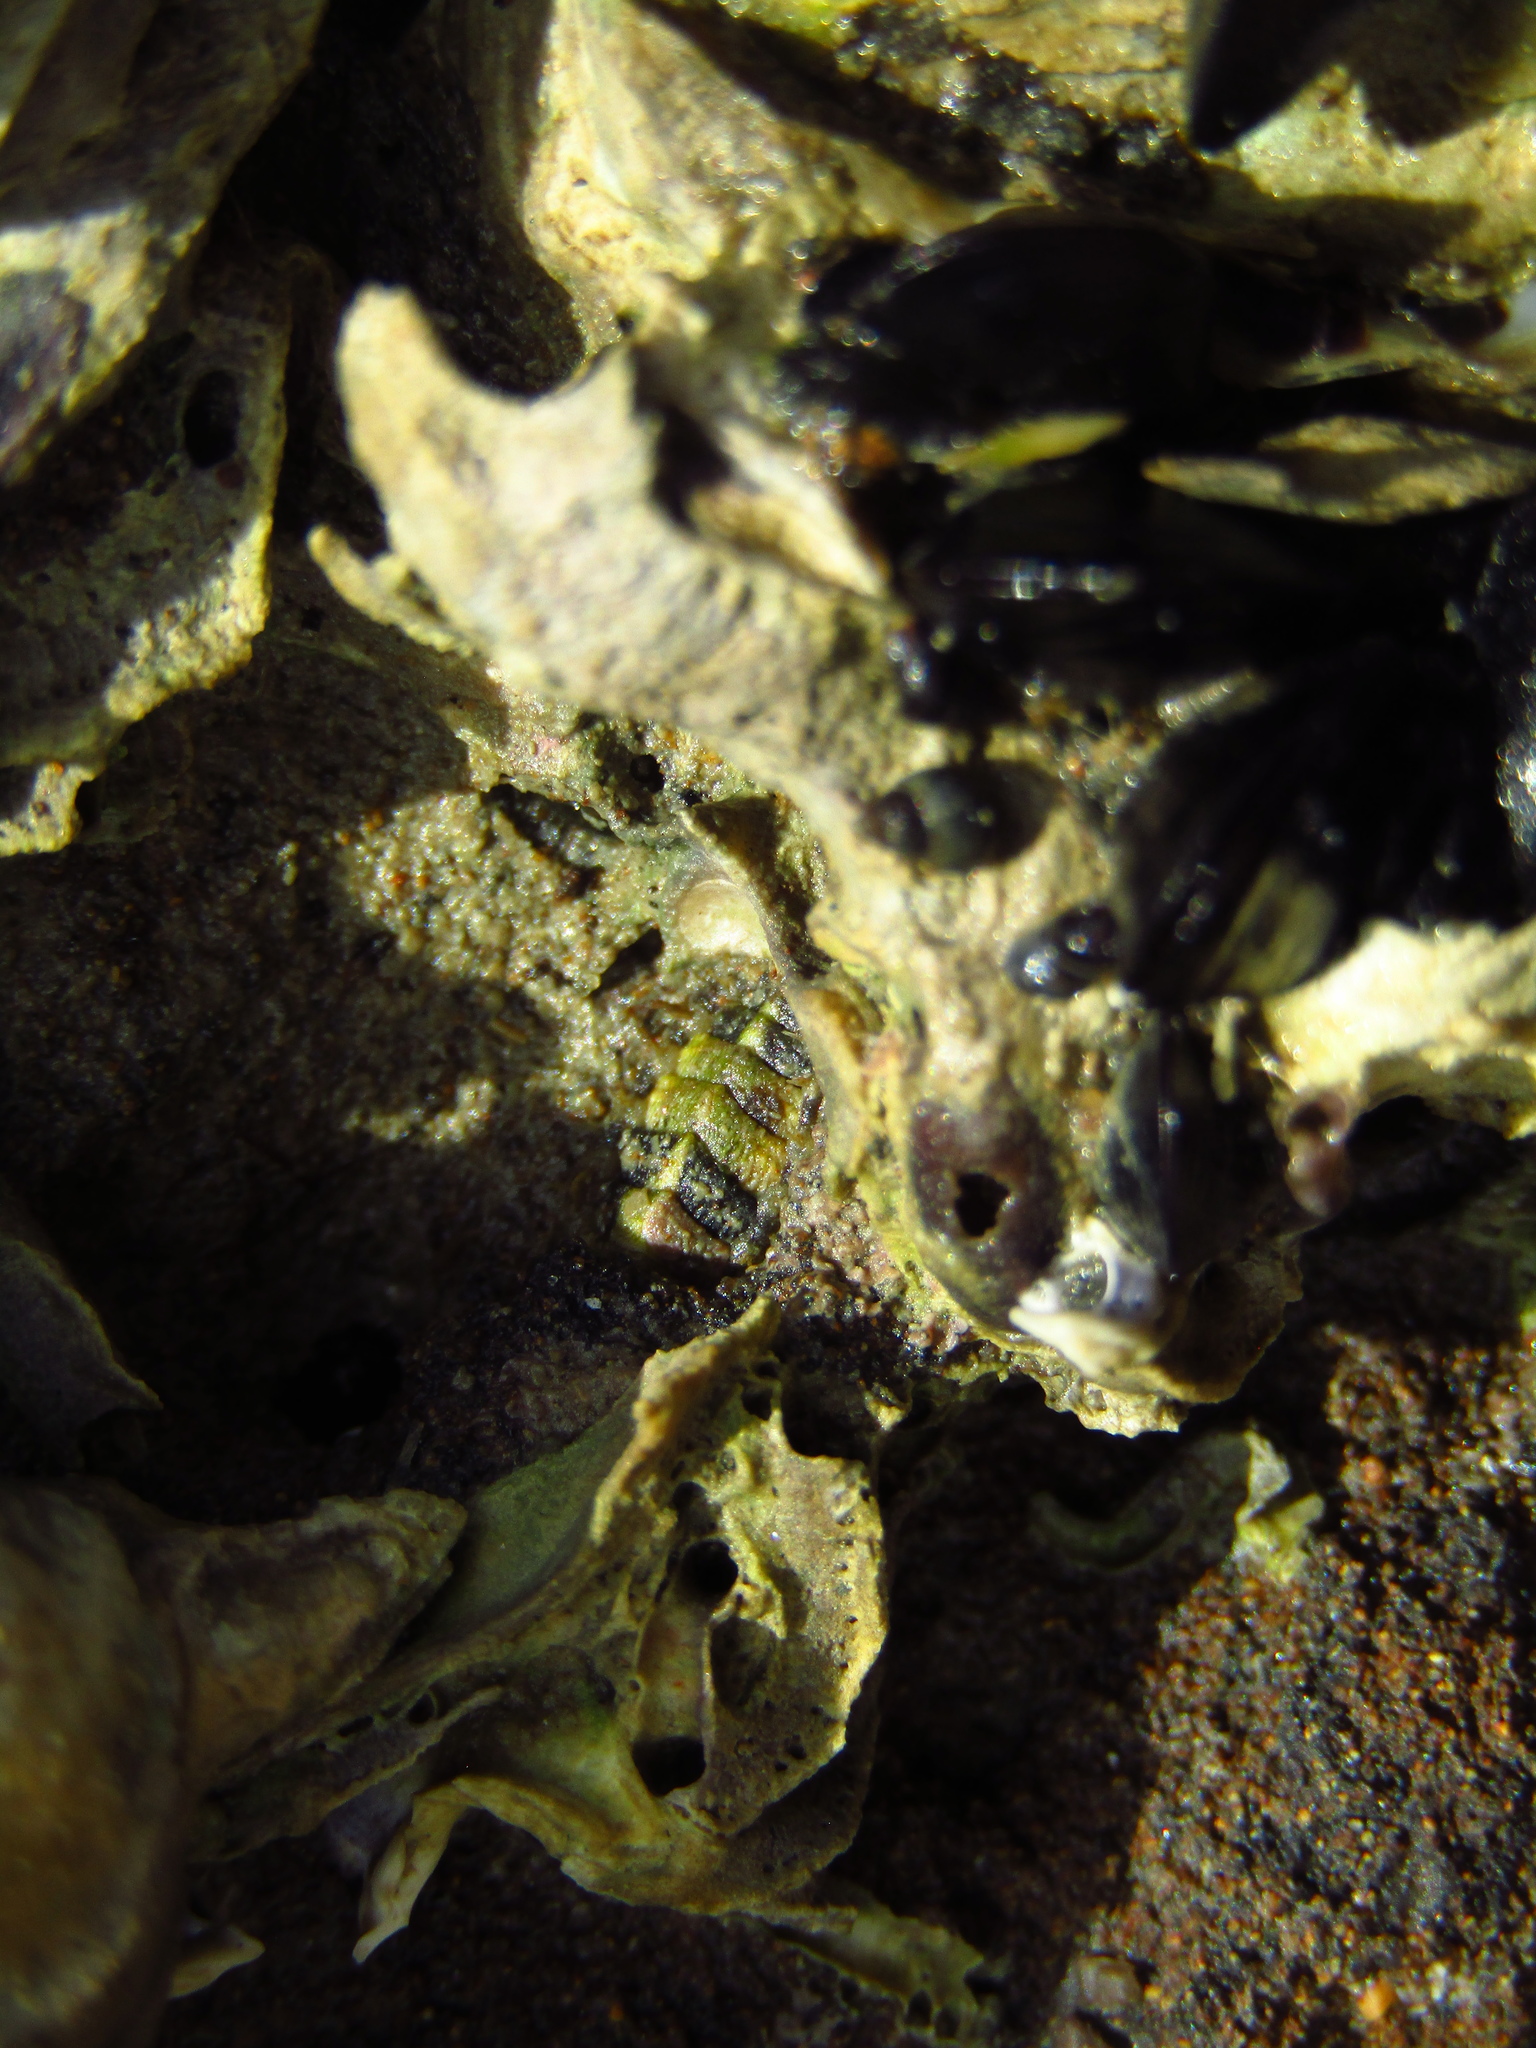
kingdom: Animalia
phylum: Mollusca
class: Polyplacophora
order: Chitonida
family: Mopaliidae
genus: Plaxiphora
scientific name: Plaxiphora caelata
